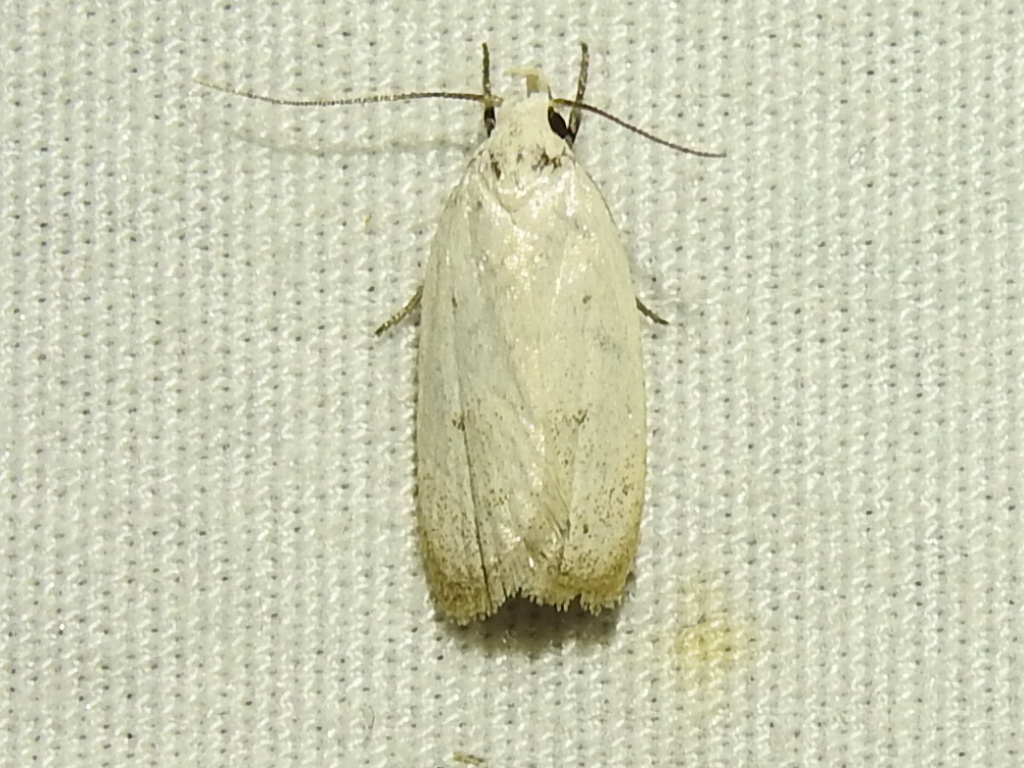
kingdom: Animalia
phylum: Arthropoda
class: Insecta
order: Lepidoptera
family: Oecophoridae
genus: Inga
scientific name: Inga cretacea
